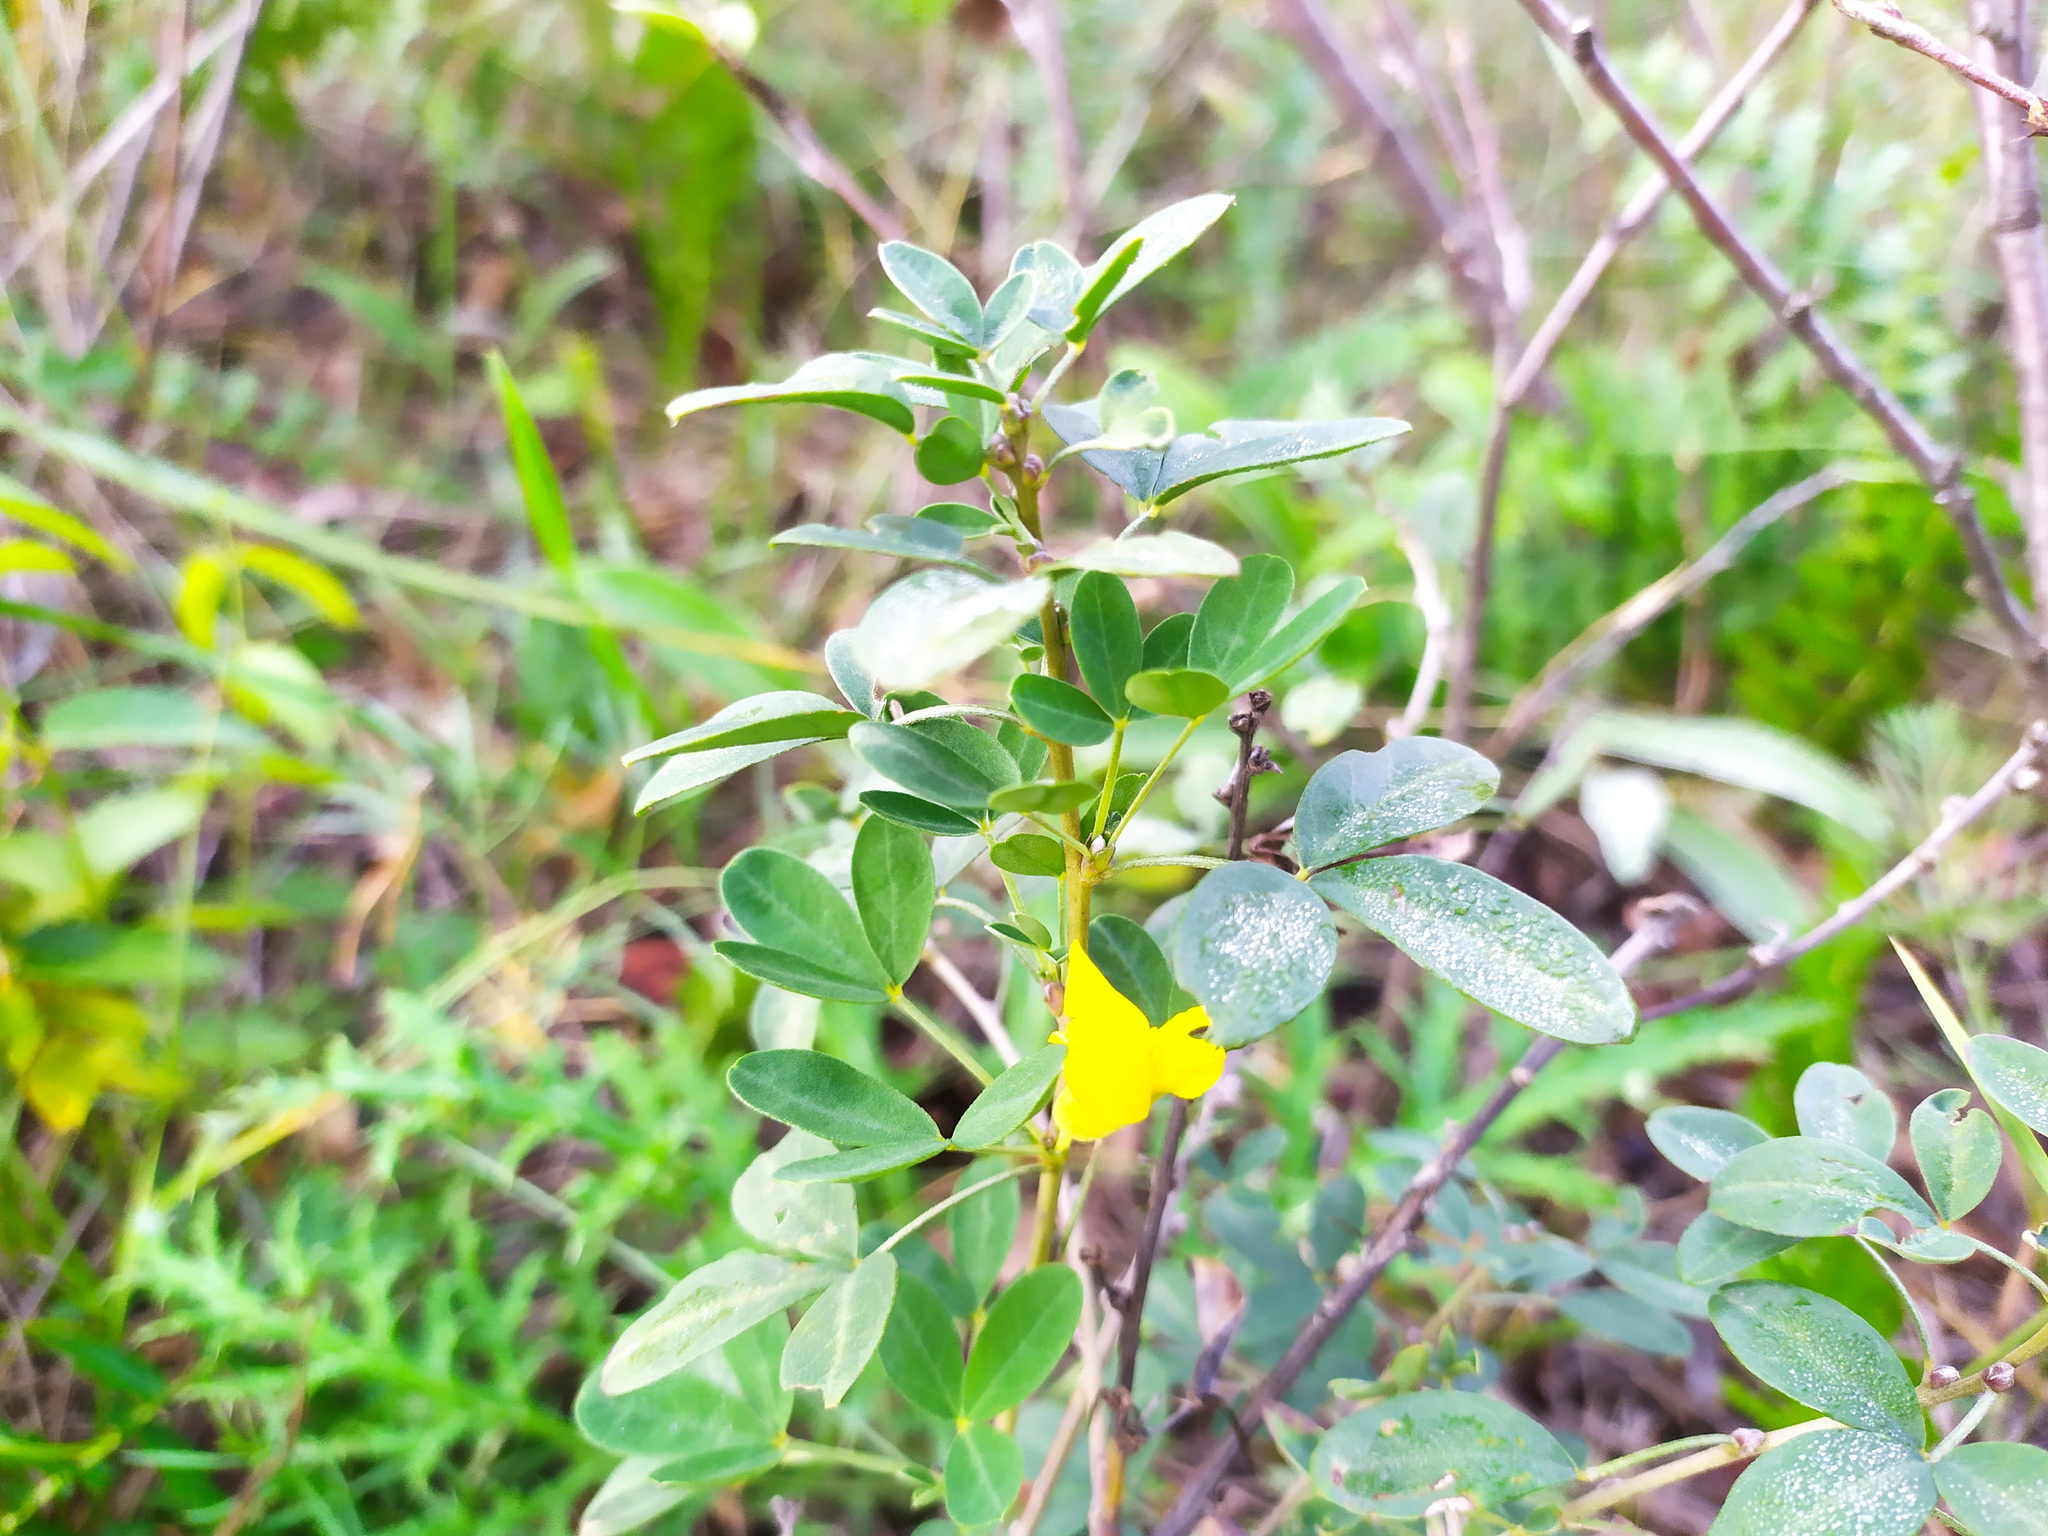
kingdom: Plantae
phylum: Tracheophyta
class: Magnoliopsida
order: Fabales
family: Fabaceae
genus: Chamaecytisus
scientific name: Chamaecytisus ruthenicus
